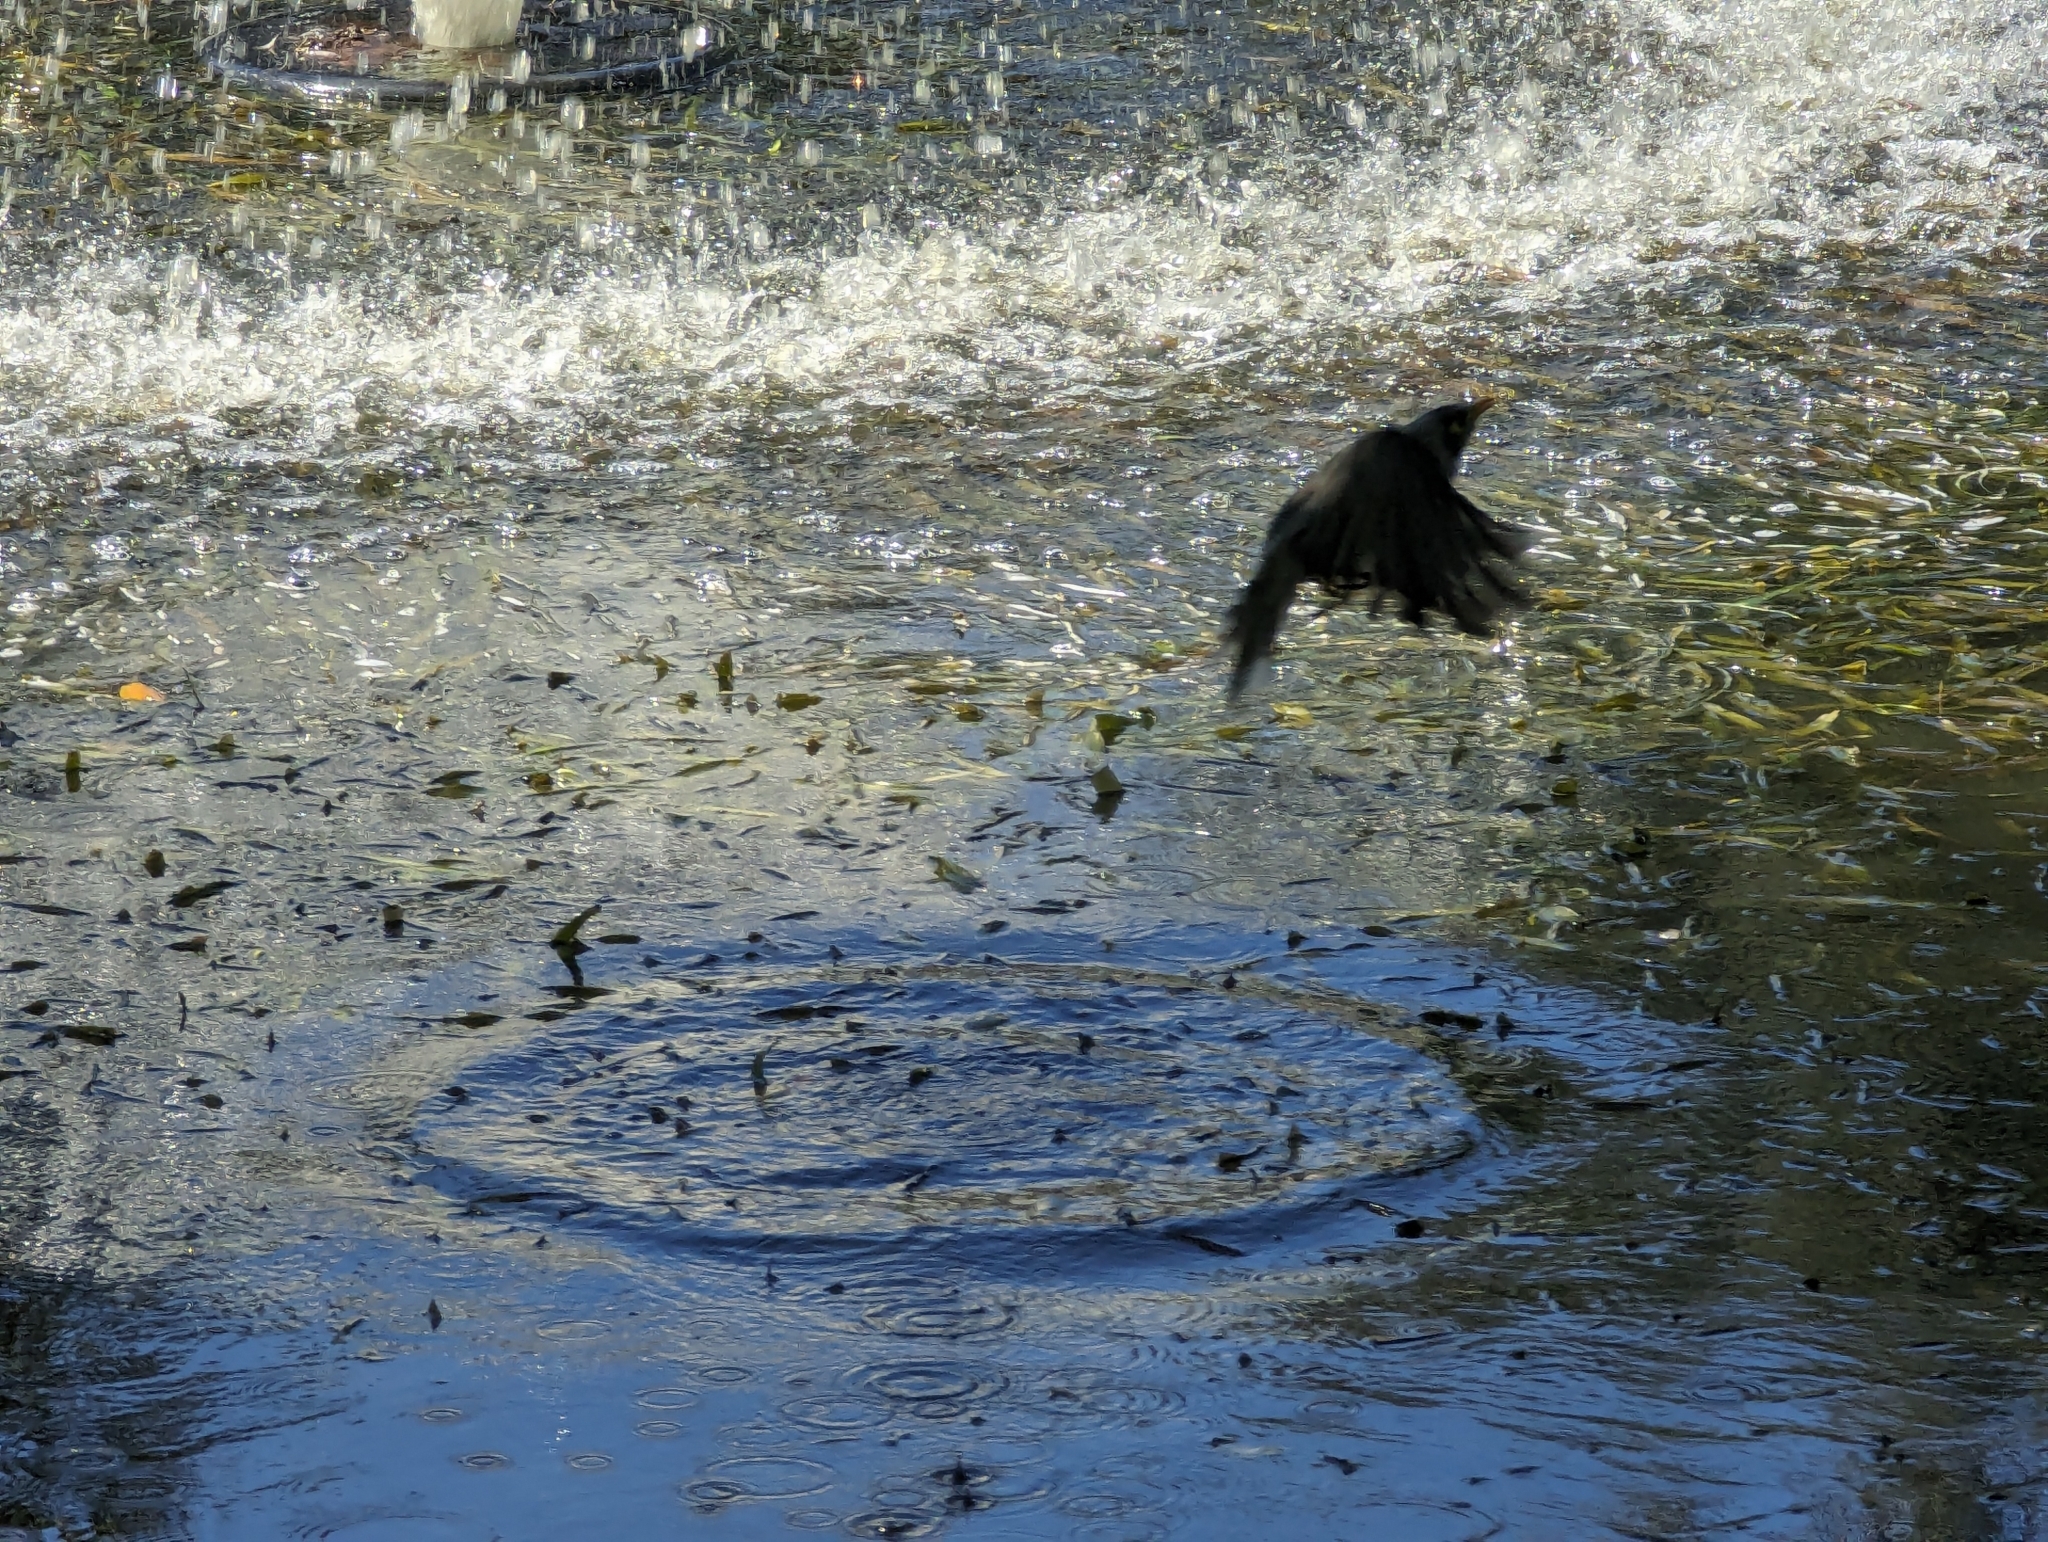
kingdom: Animalia
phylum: Chordata
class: Aves
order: Passeriformes
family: Meliphagidae
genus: Manorina
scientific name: Manorina melanocephala
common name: Noisy miner
